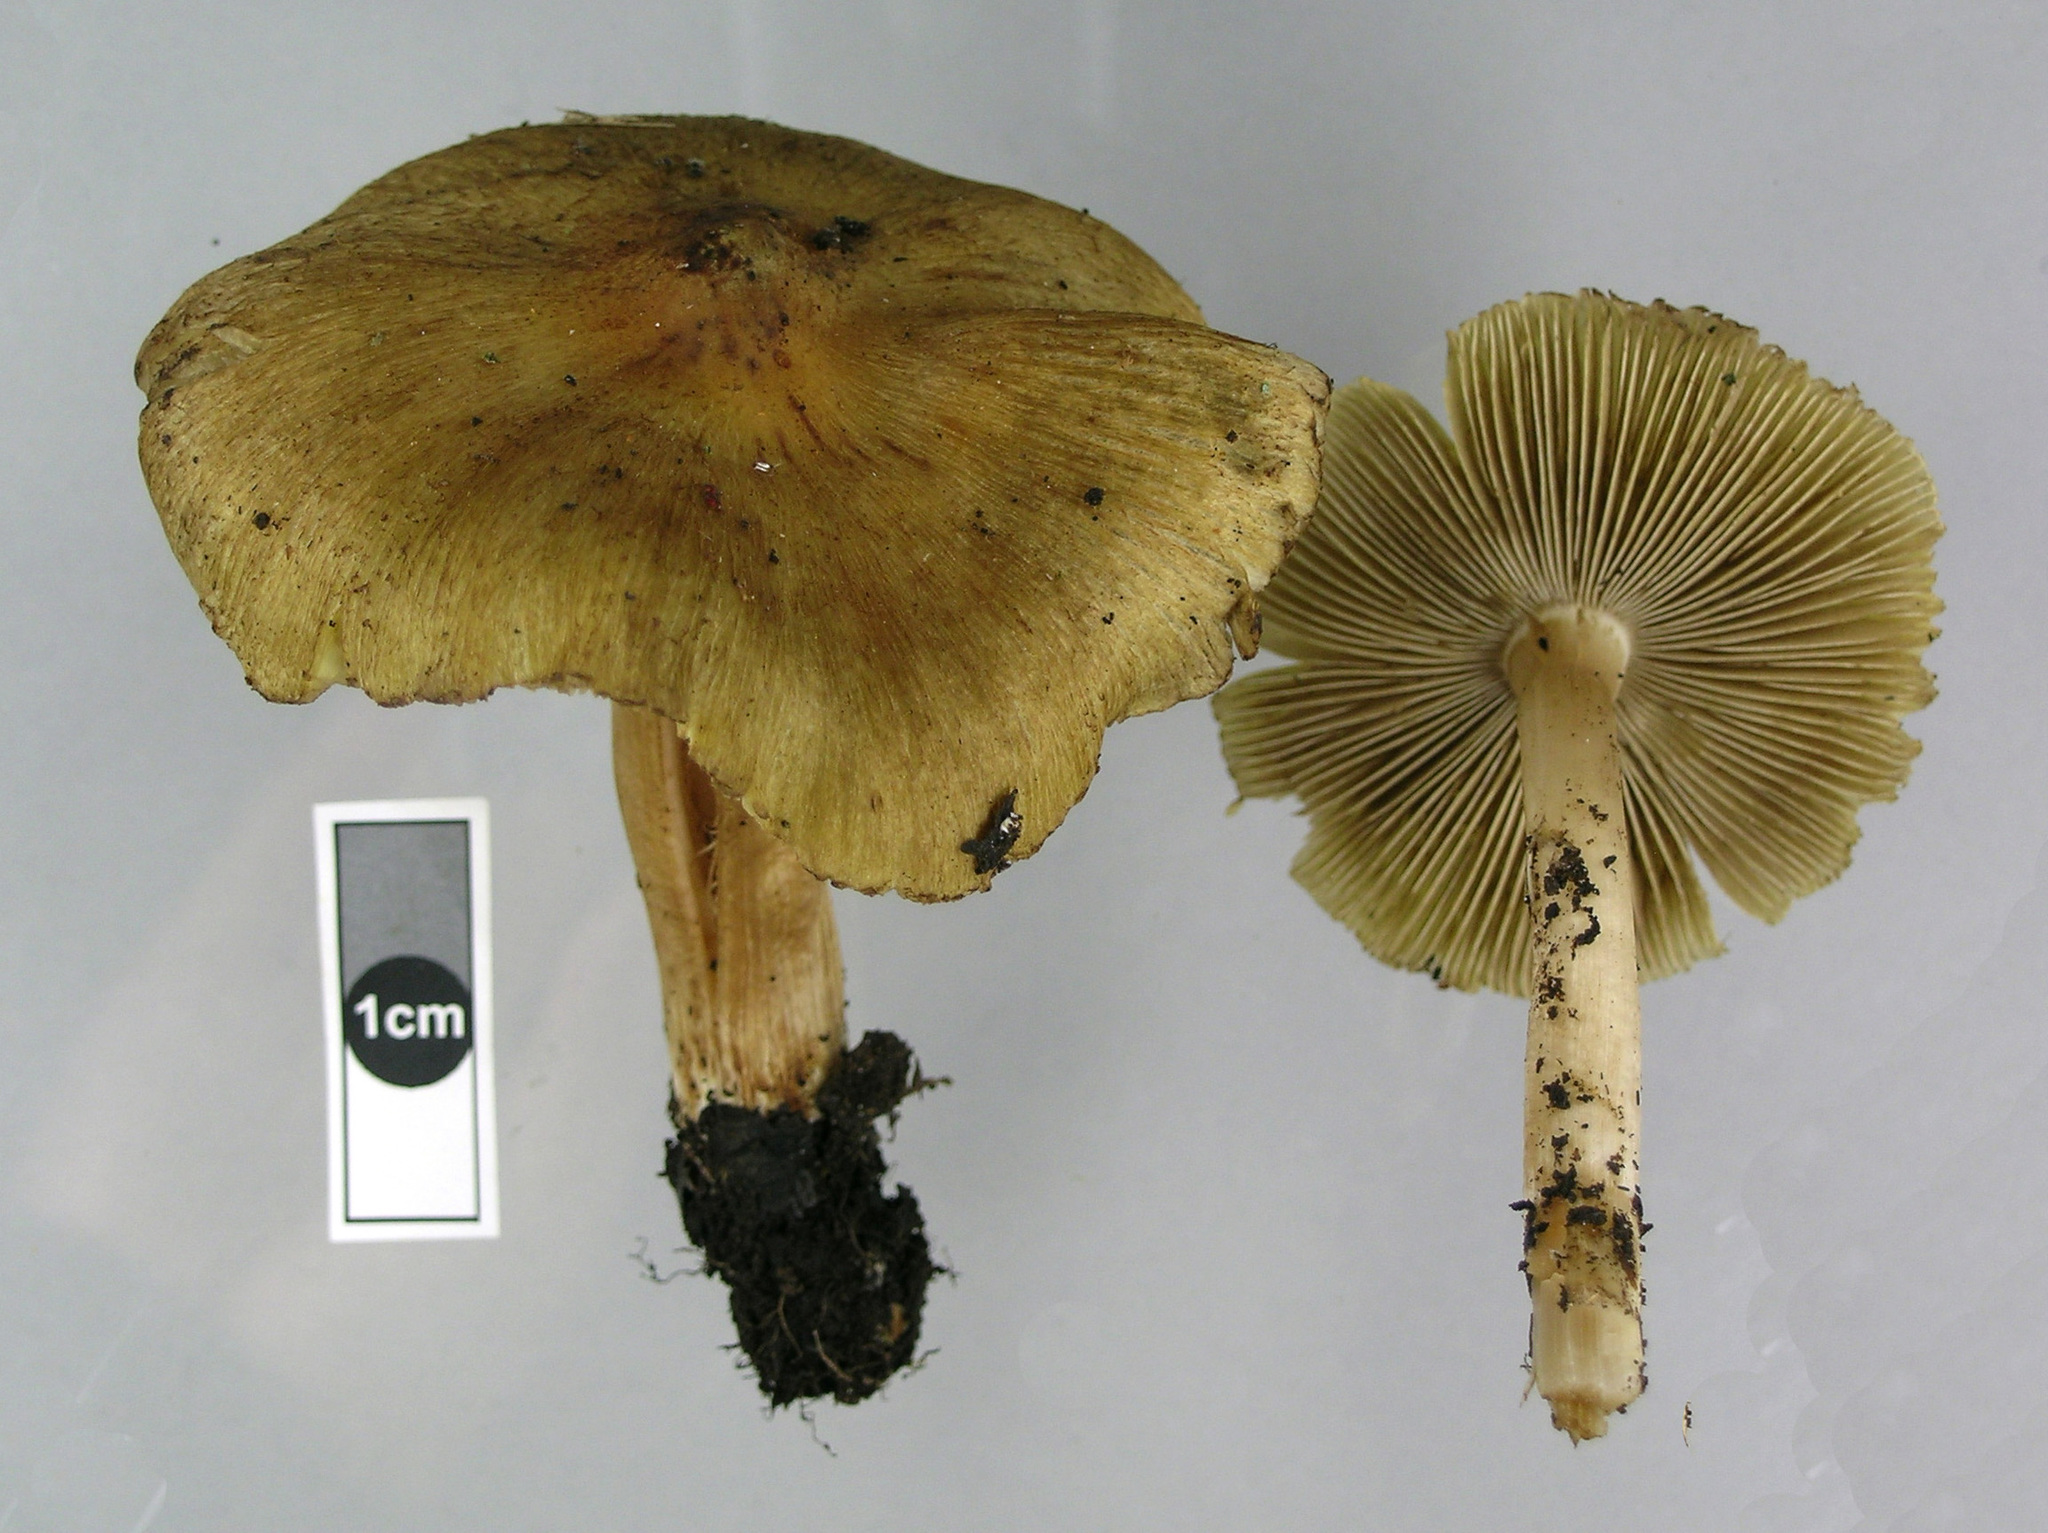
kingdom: Fungi
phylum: Basidiomycota
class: Agaricomycetes
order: Agaricales
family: Inocybaceae
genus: Pseudosperma
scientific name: Pseudosperma rimosum
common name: Split fibrecap
